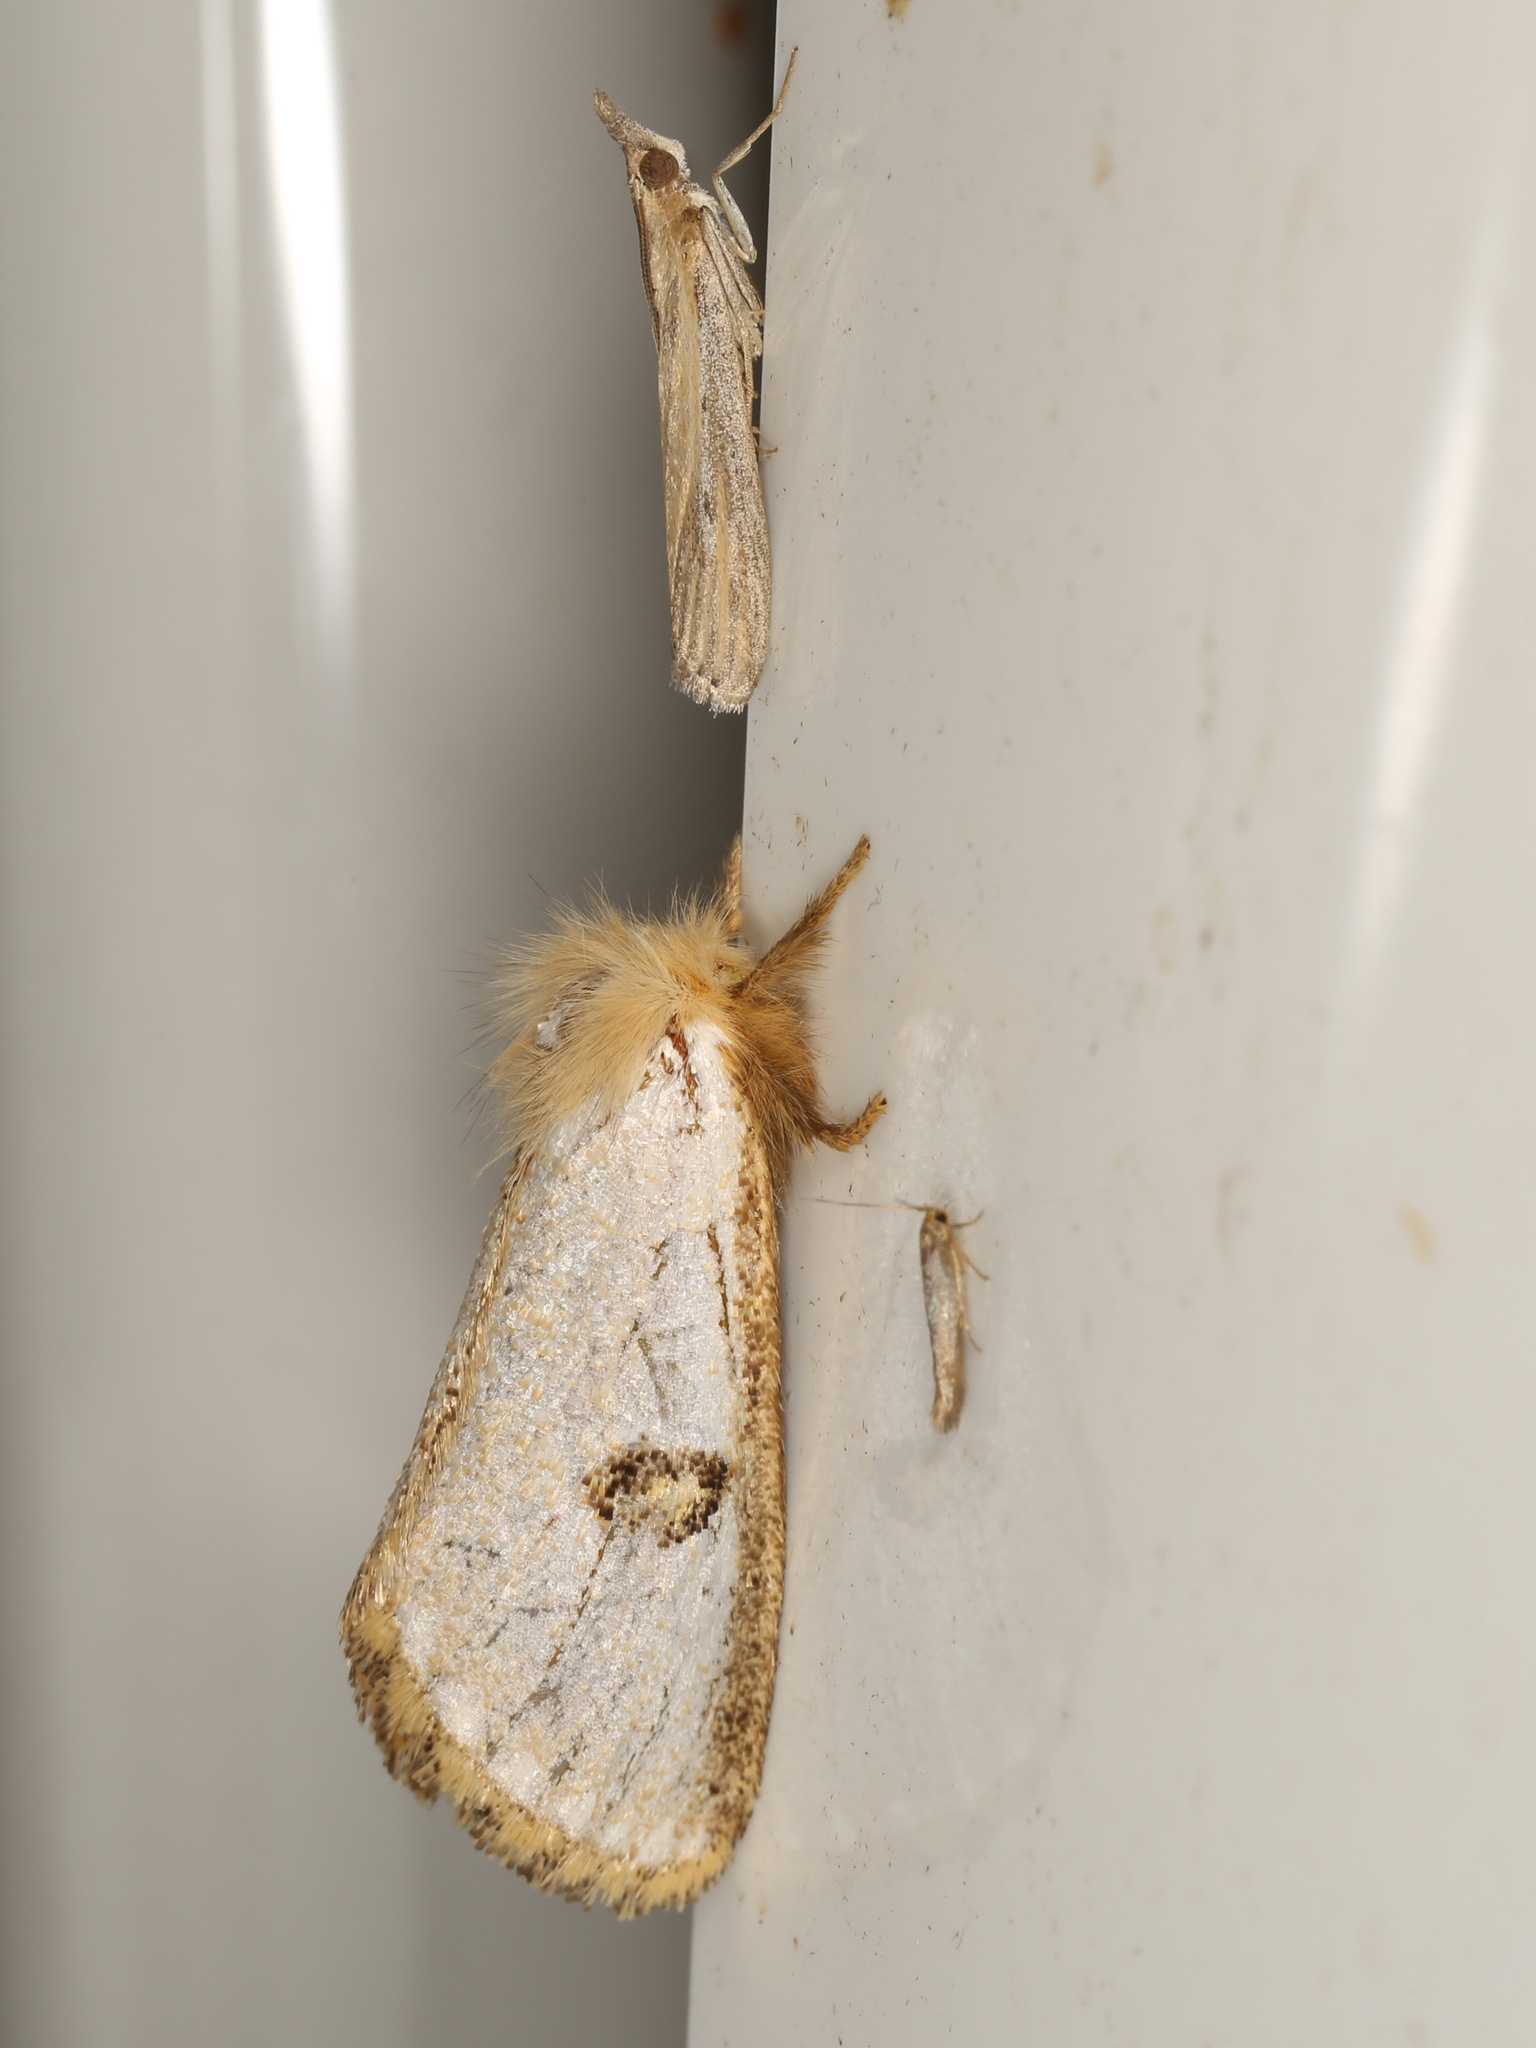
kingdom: Animalia
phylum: Arthropoda
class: Insecta
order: Lepidoptera
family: Notodontidae
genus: Epicoma
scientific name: Epicoma melanosticta
